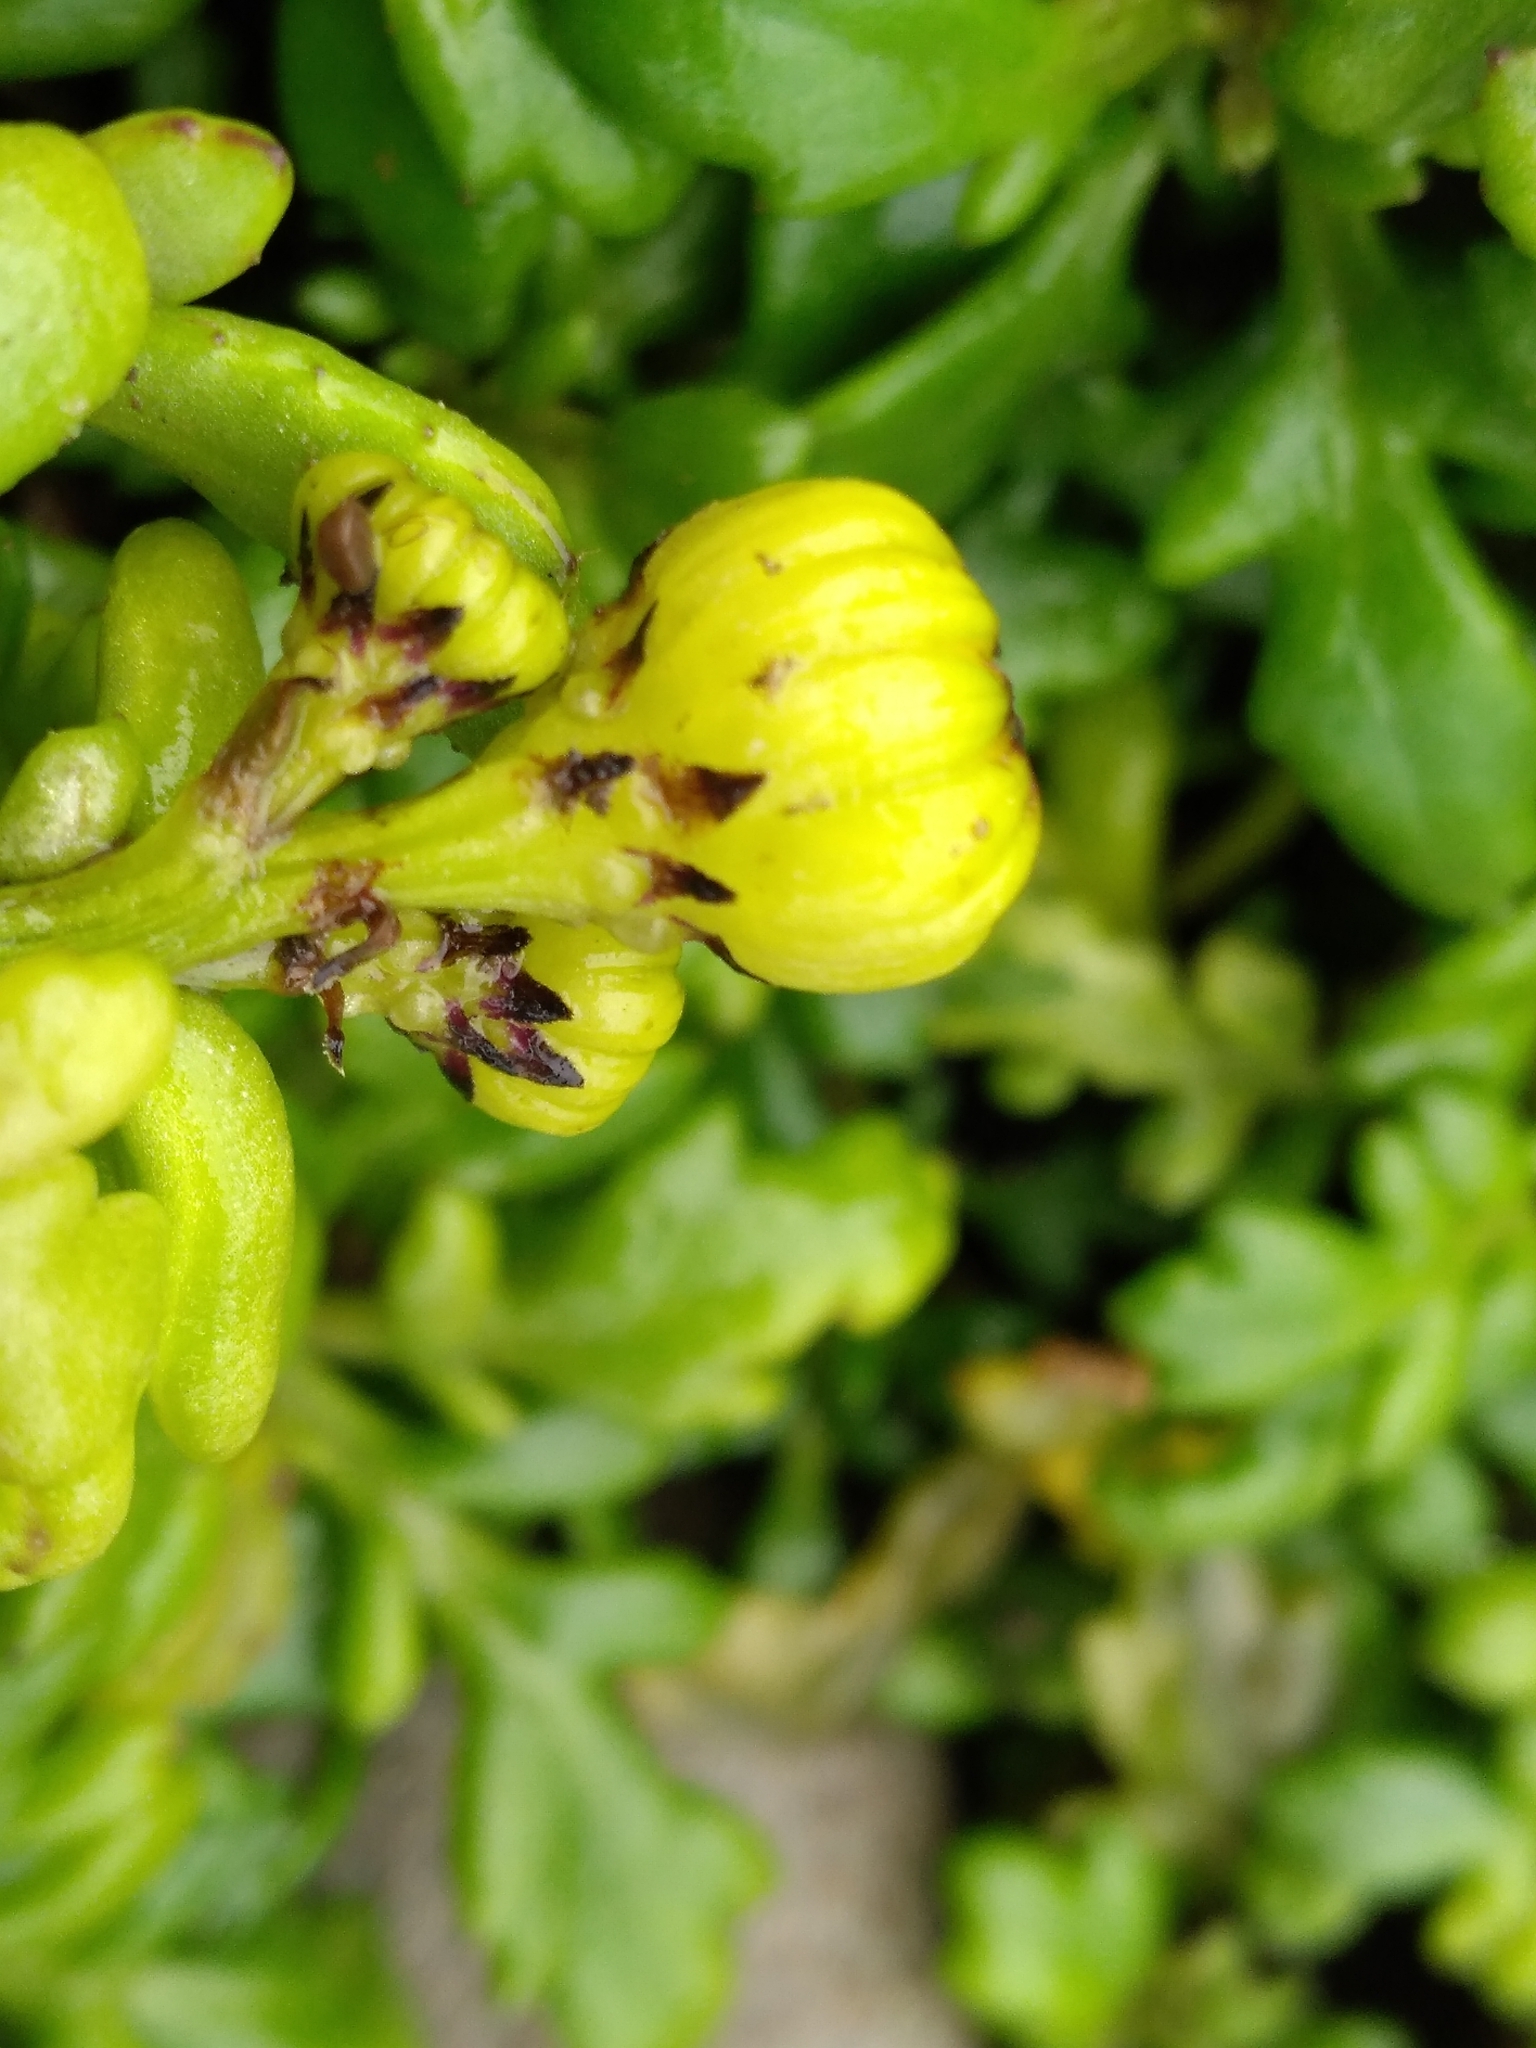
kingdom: Plantae
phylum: Tracheophyta
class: Magnoliopsida
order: Asterales
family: Asteraceae
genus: Senecio
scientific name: Senecio lautus
